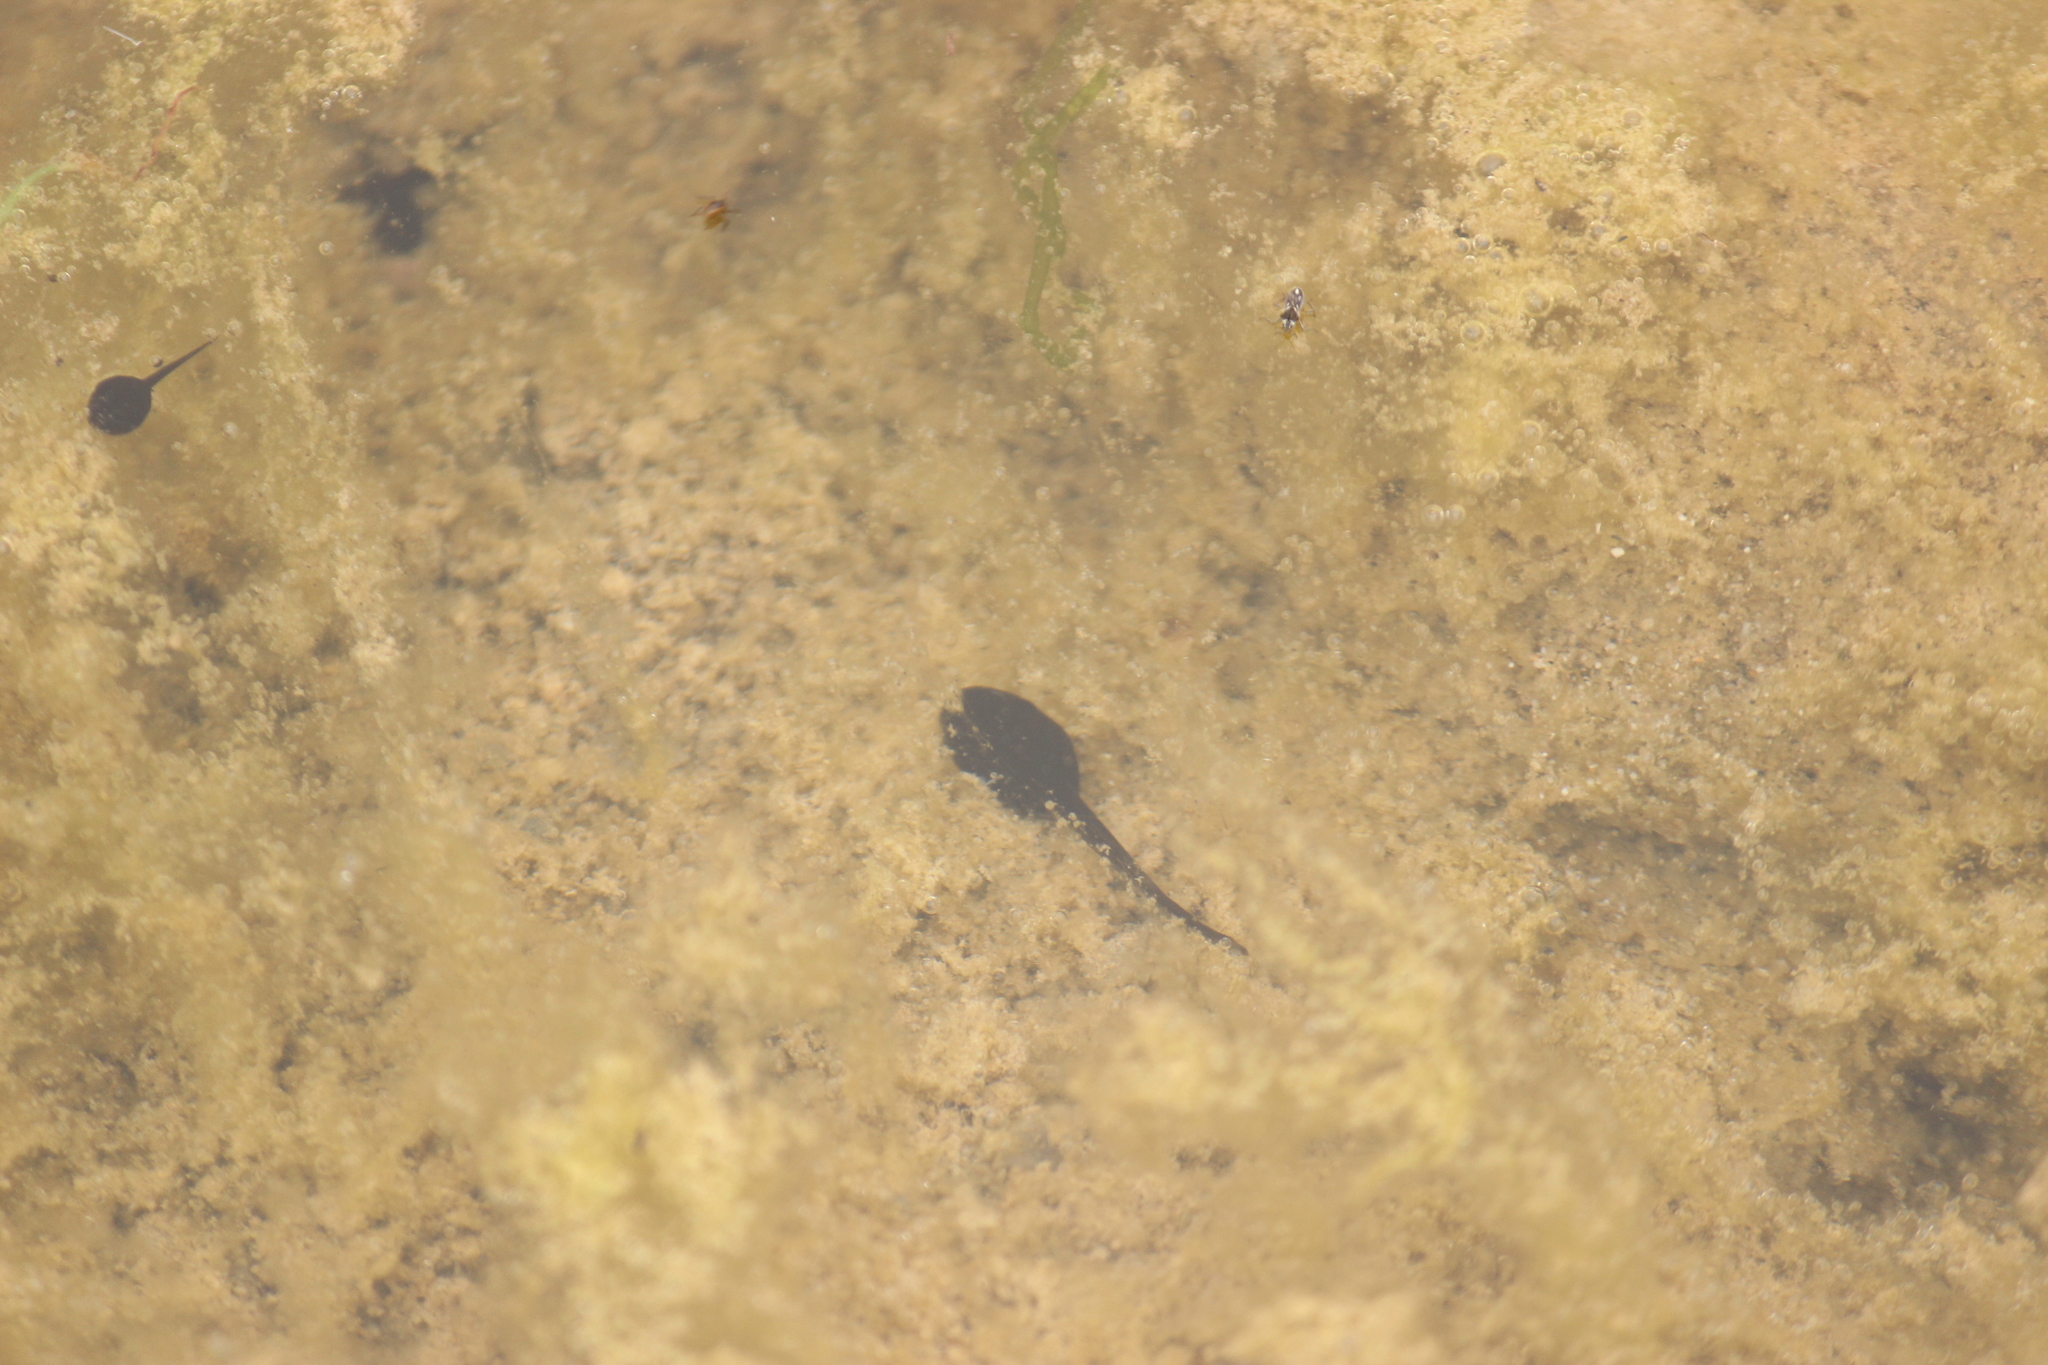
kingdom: Animalia
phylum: Chordata
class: Amphibia
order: Anura
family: Bufonidae
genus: Rhinella
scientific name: Rhinella limensis
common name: Peru coast toad
